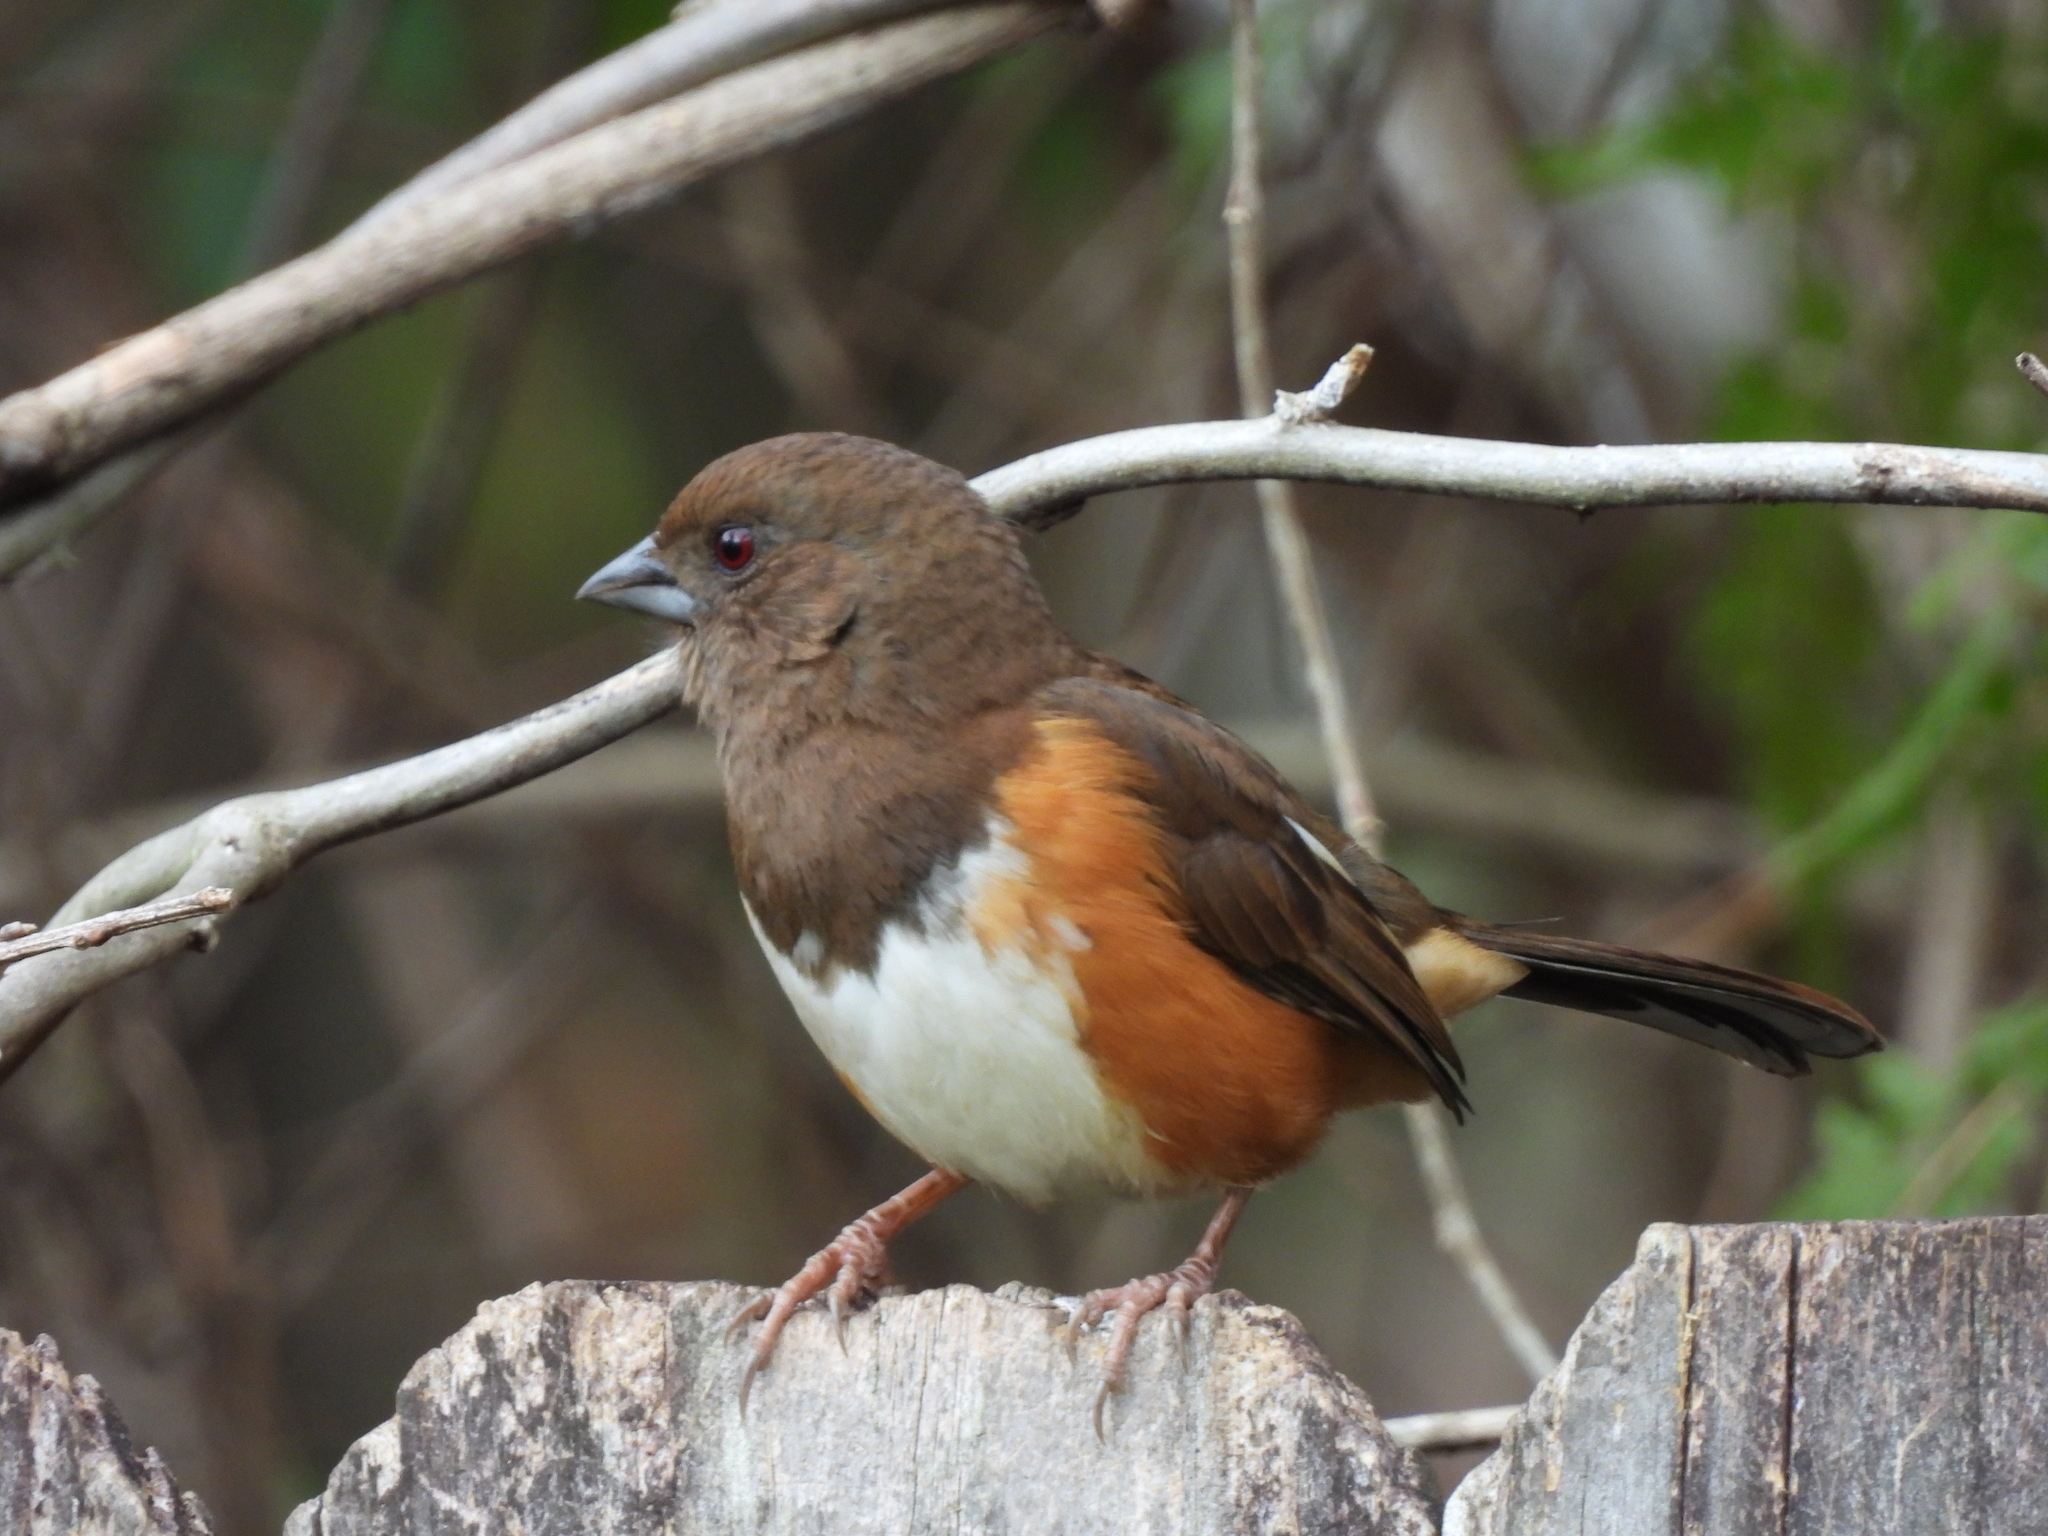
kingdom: Animalia
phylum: Chordata
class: Aves
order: Passeriformes
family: Passerellidae
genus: Pipilo
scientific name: Pipilo erythrophthalmus
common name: Eastern towhee
